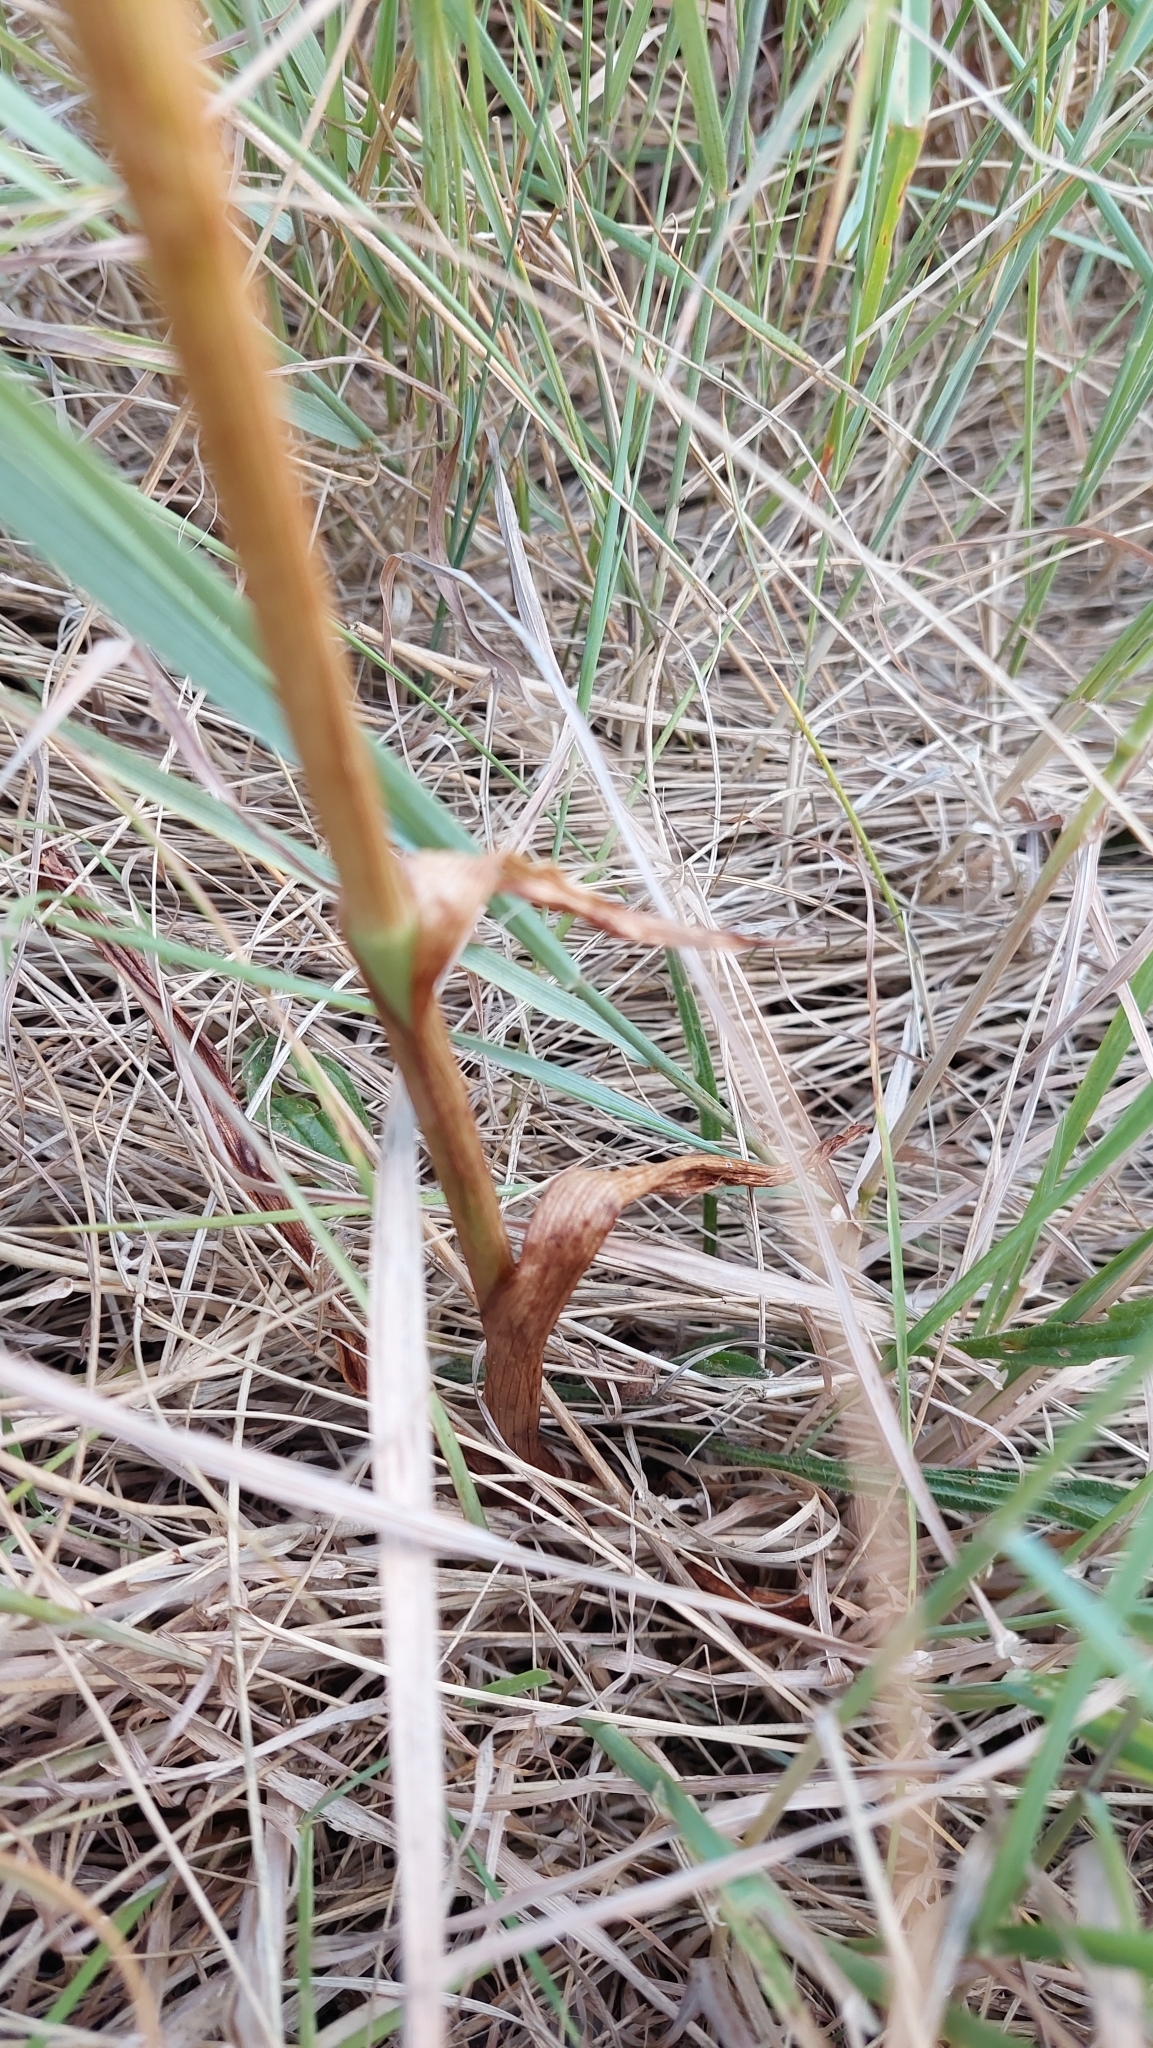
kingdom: Plantae
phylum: Tracheophyta
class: Liliopsida
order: Asparagales
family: Orchidaceae
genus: Anacamptis
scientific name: Anacamptis pyramidalis
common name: Pyramidal orchid
